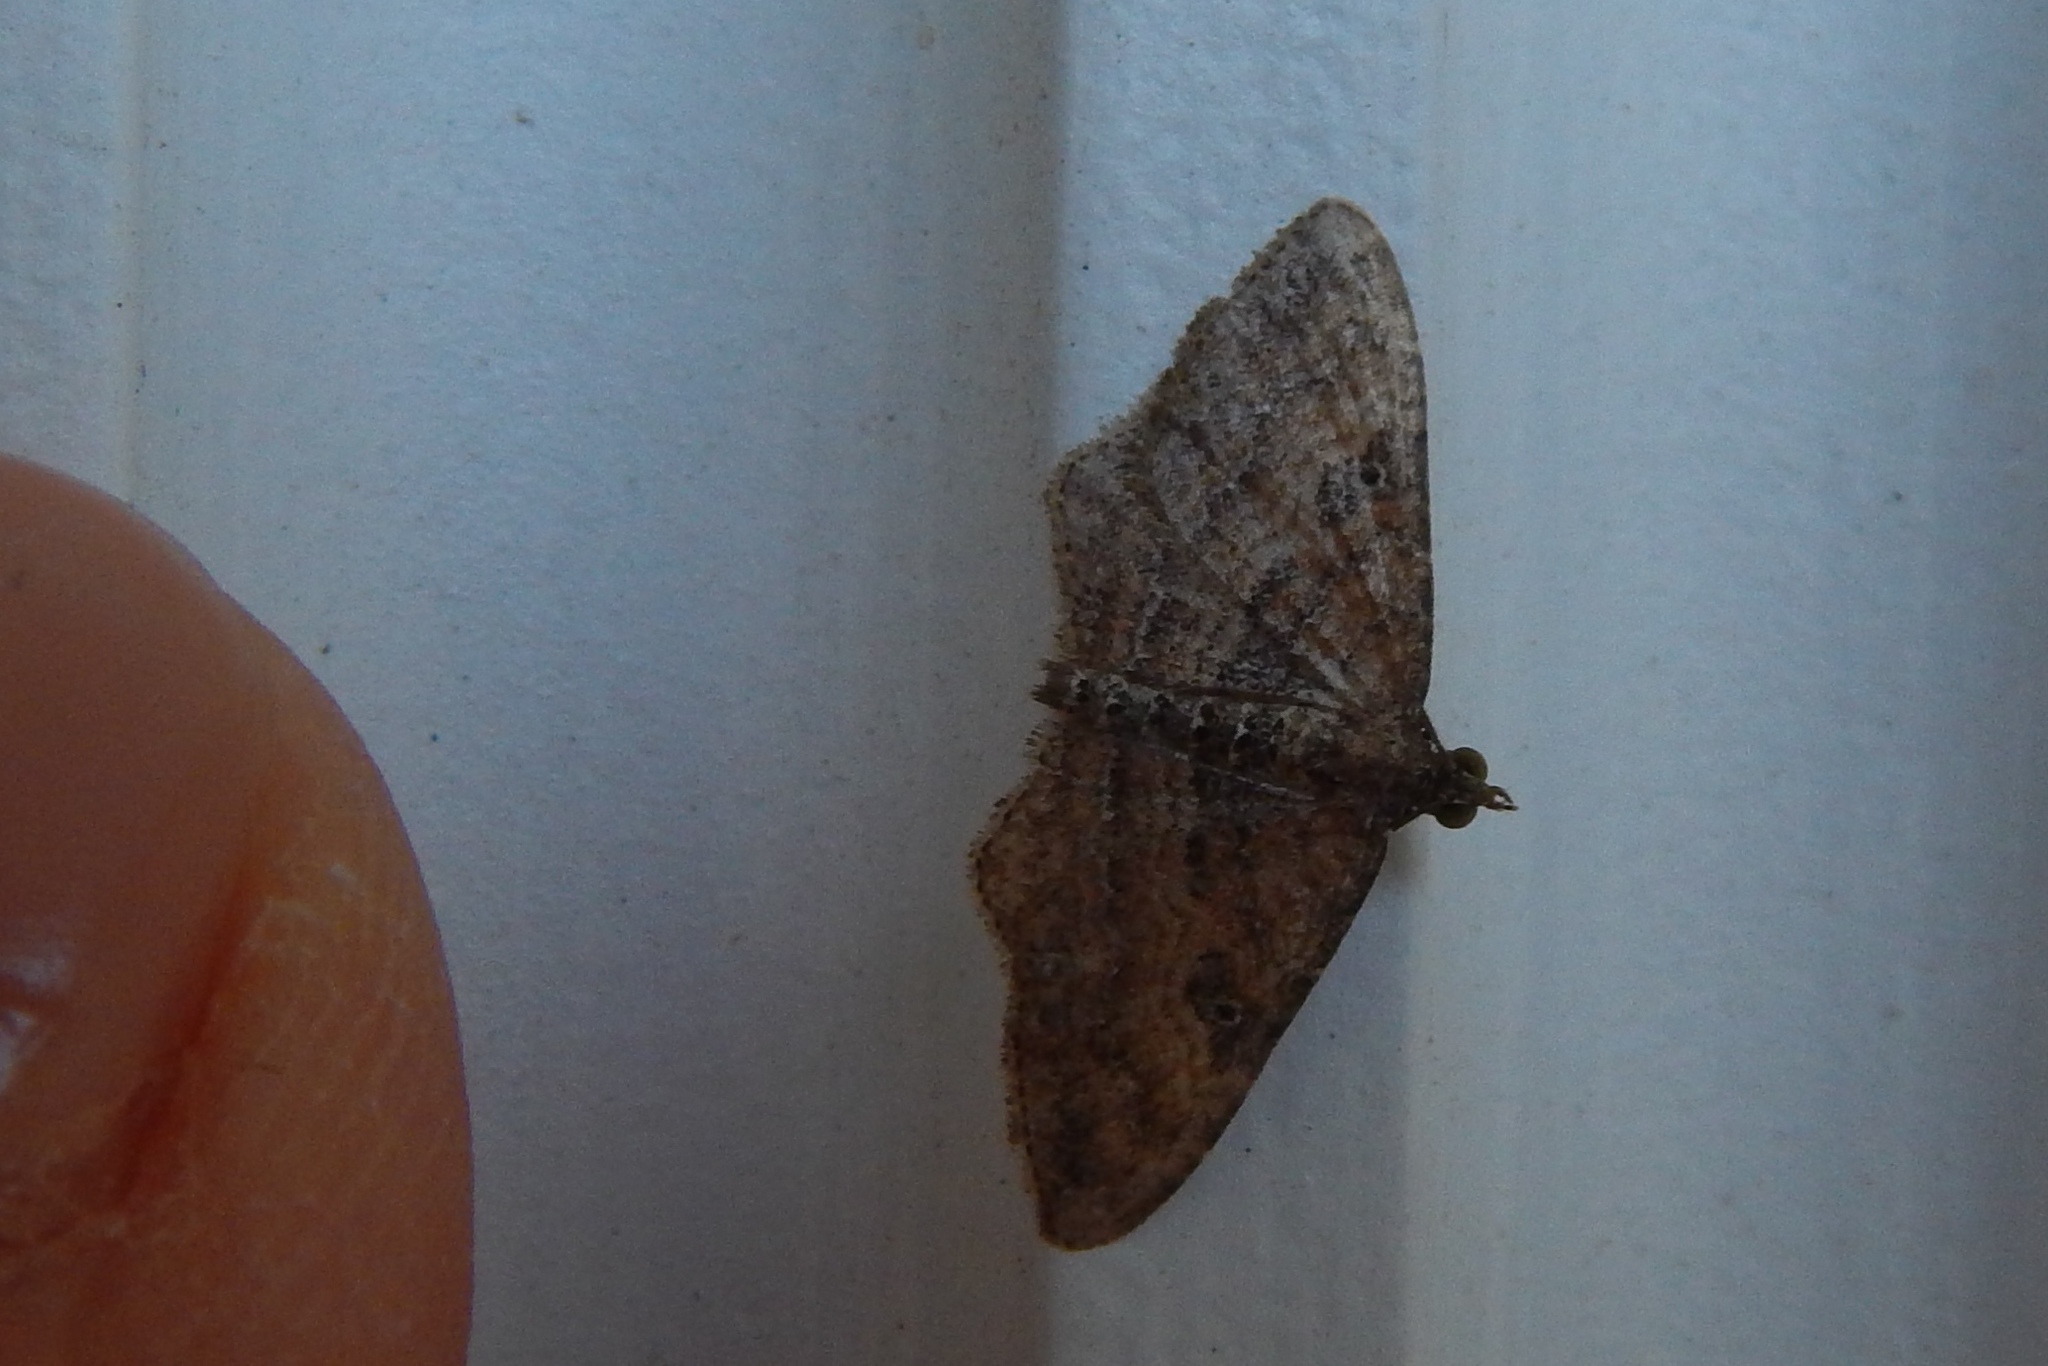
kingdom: Animalia
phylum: Arthropoda
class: Insecta
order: Lepidoptera
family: Geometridae
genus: Orthonama
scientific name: Orthonama obstipata
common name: The gem
